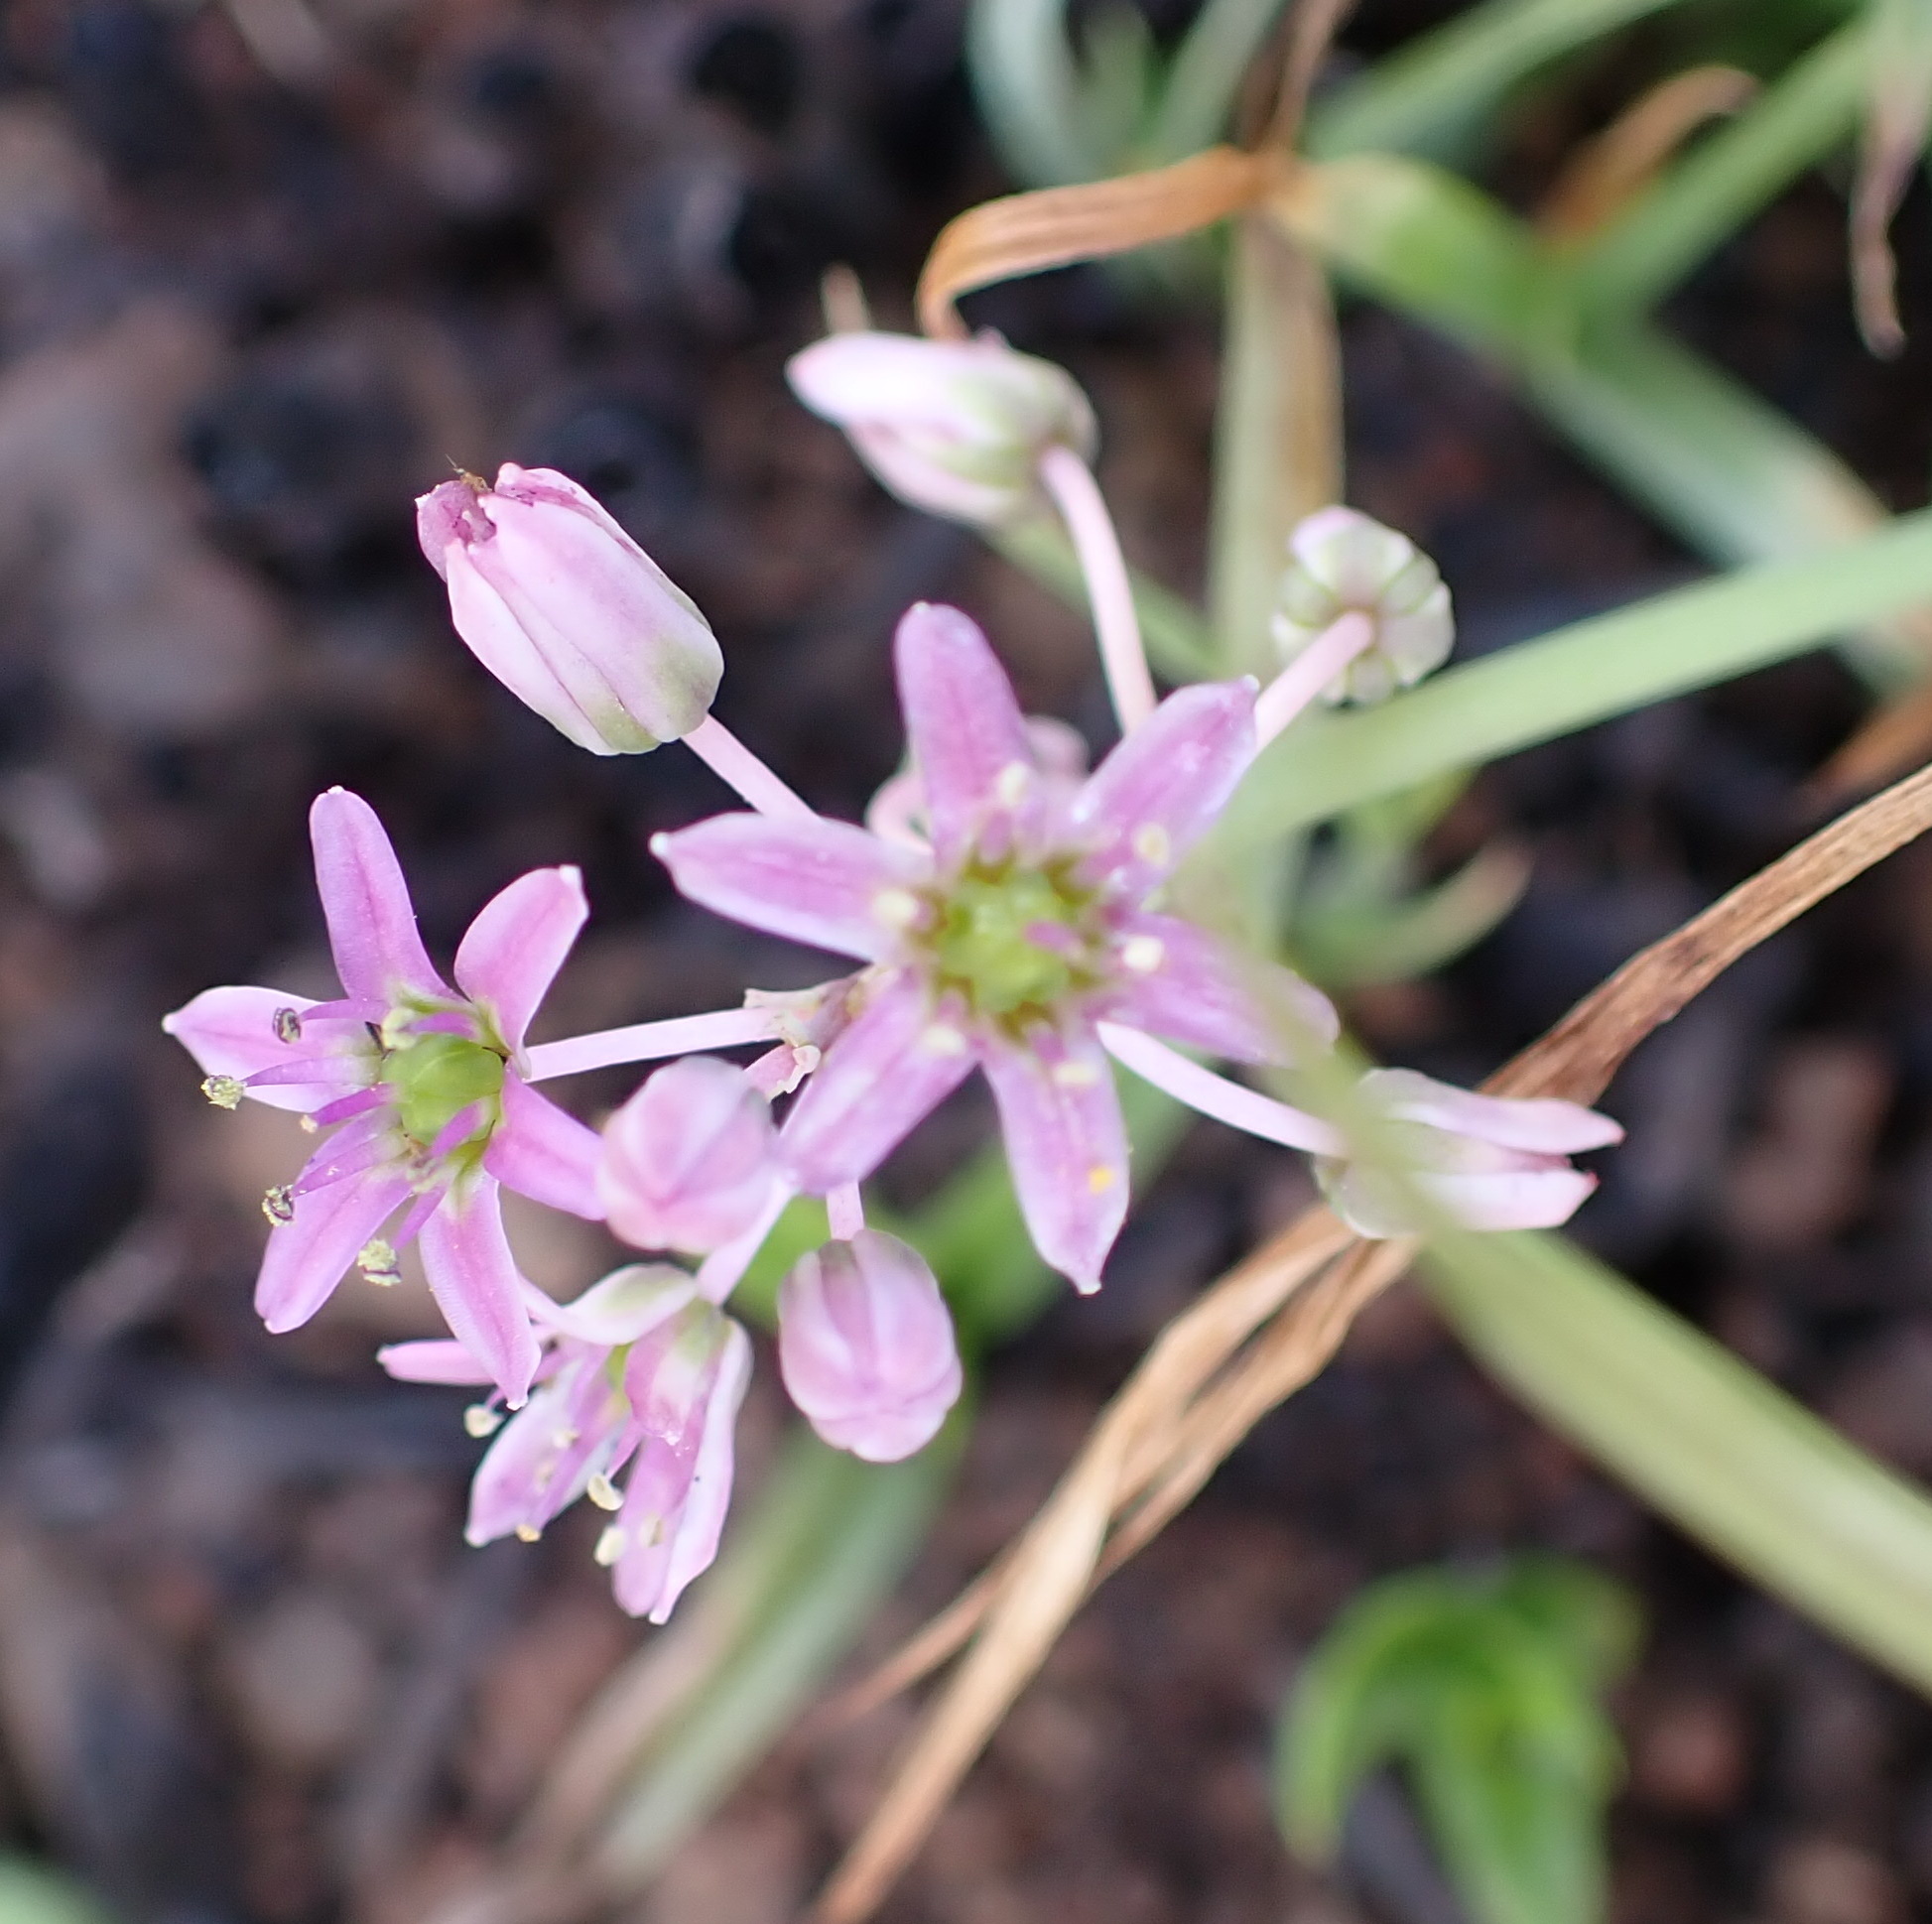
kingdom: Plantae
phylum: Tracheophyta
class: Liliopsida
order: Asparagales
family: Asparagaceae
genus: Ledebouria
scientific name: Ledebouria cooperi
